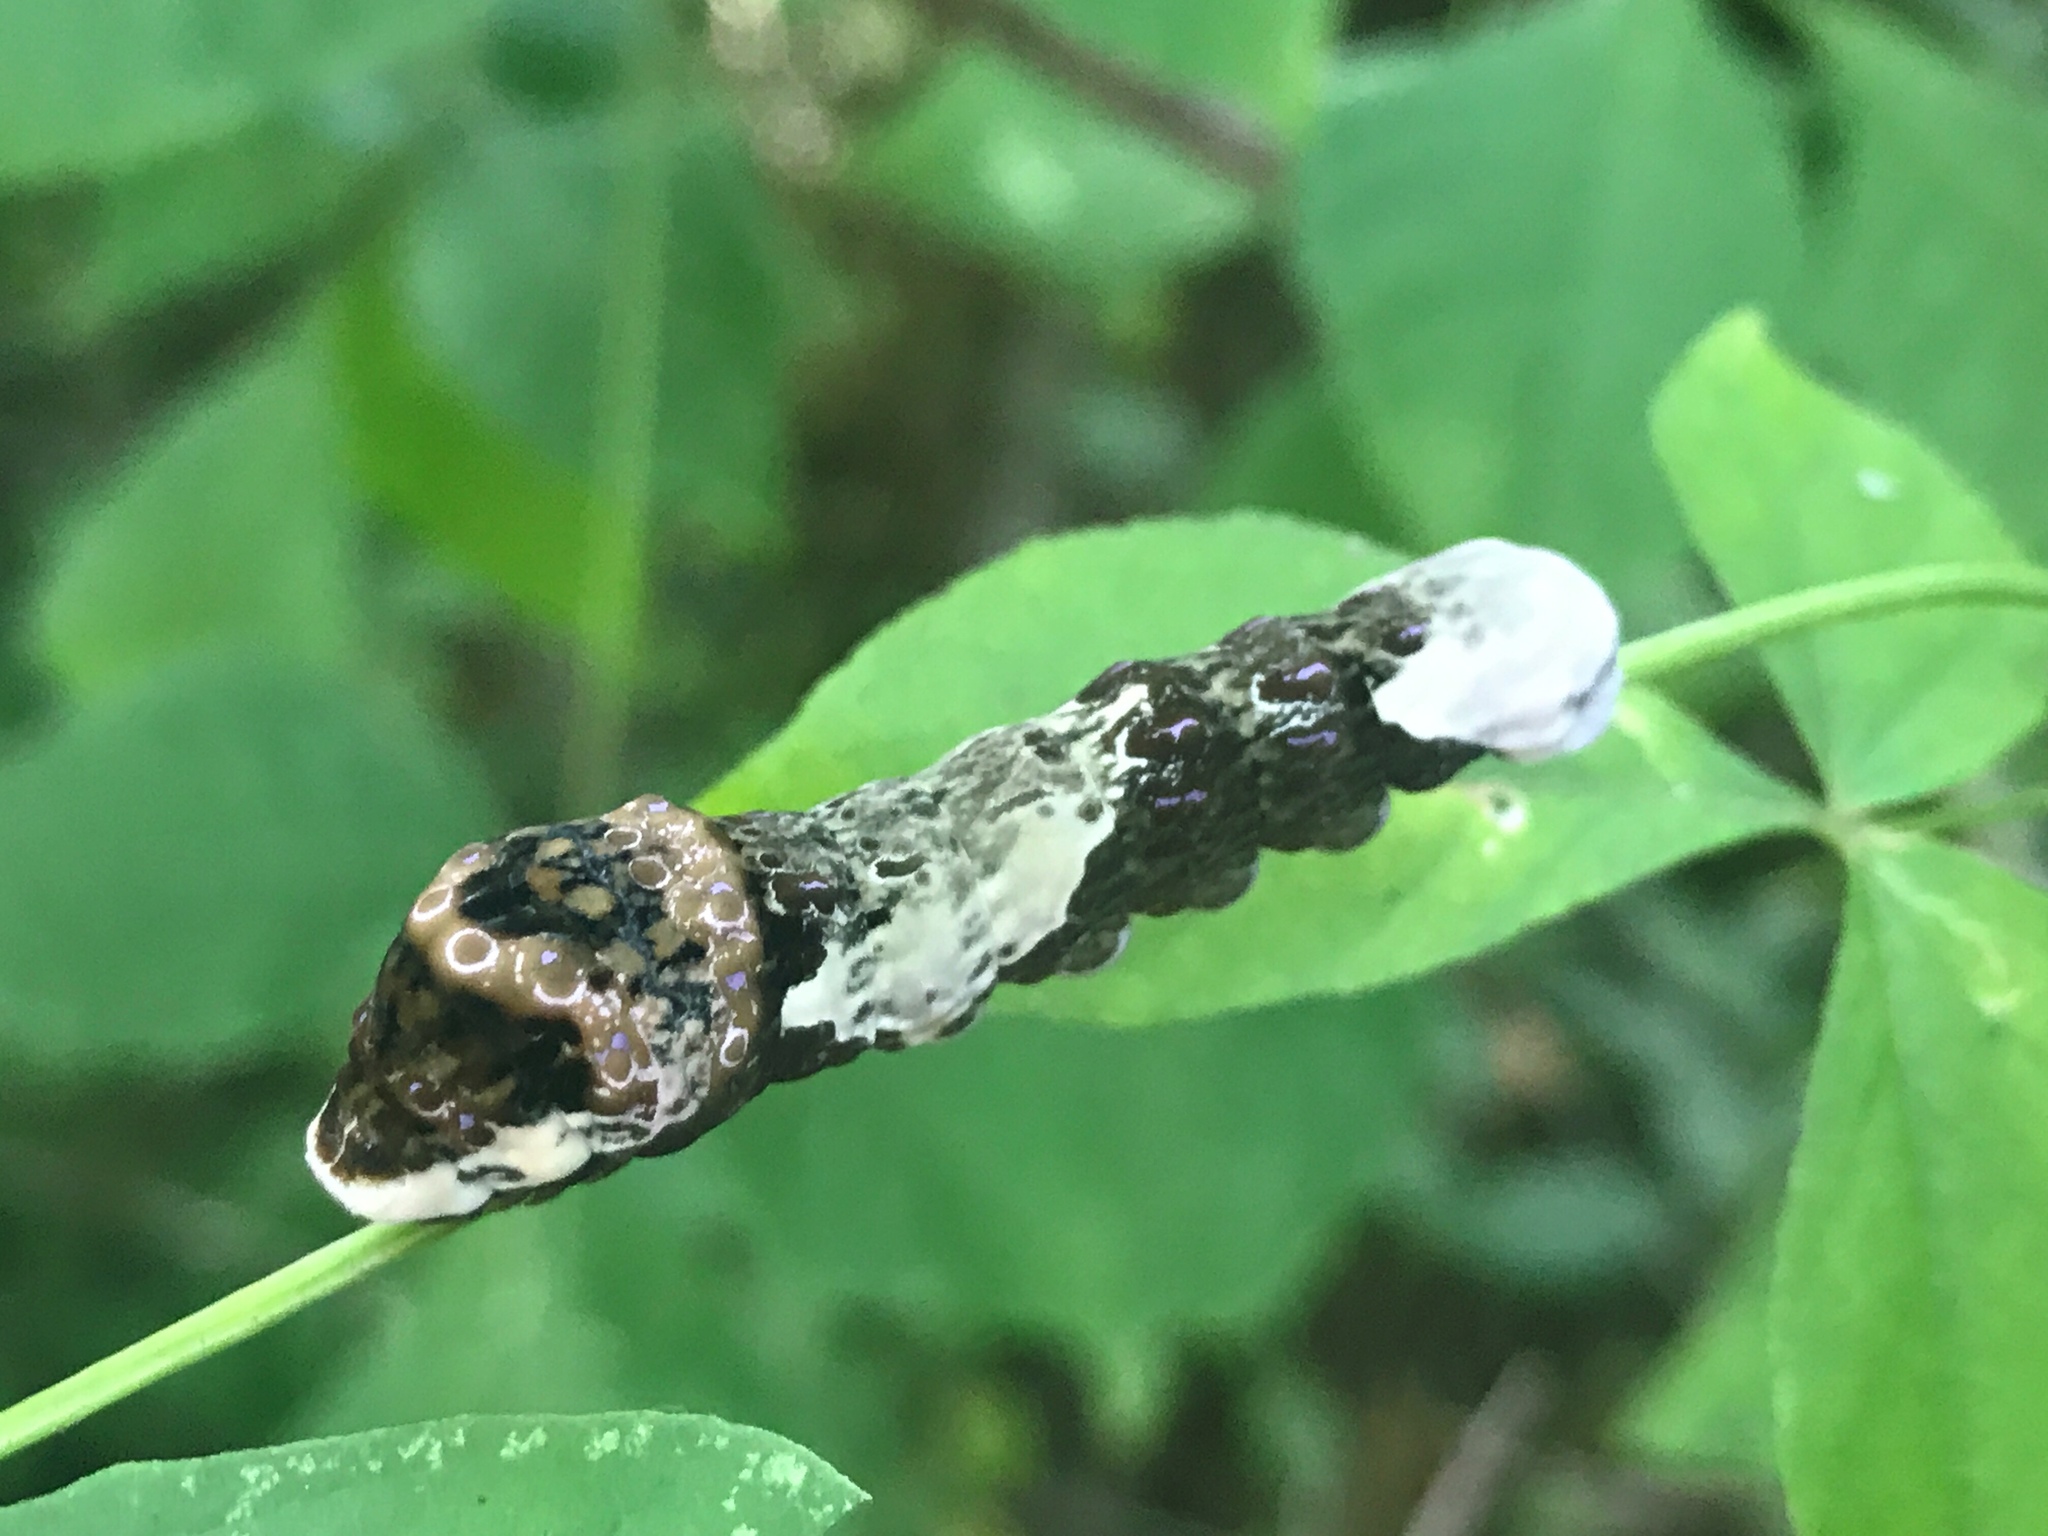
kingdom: Animalia
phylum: Arthropoda
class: Insecta
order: Lepidoptera
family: Papilionidae
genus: Papilio
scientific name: Papilio cresphontes
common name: Giant swallowtail
